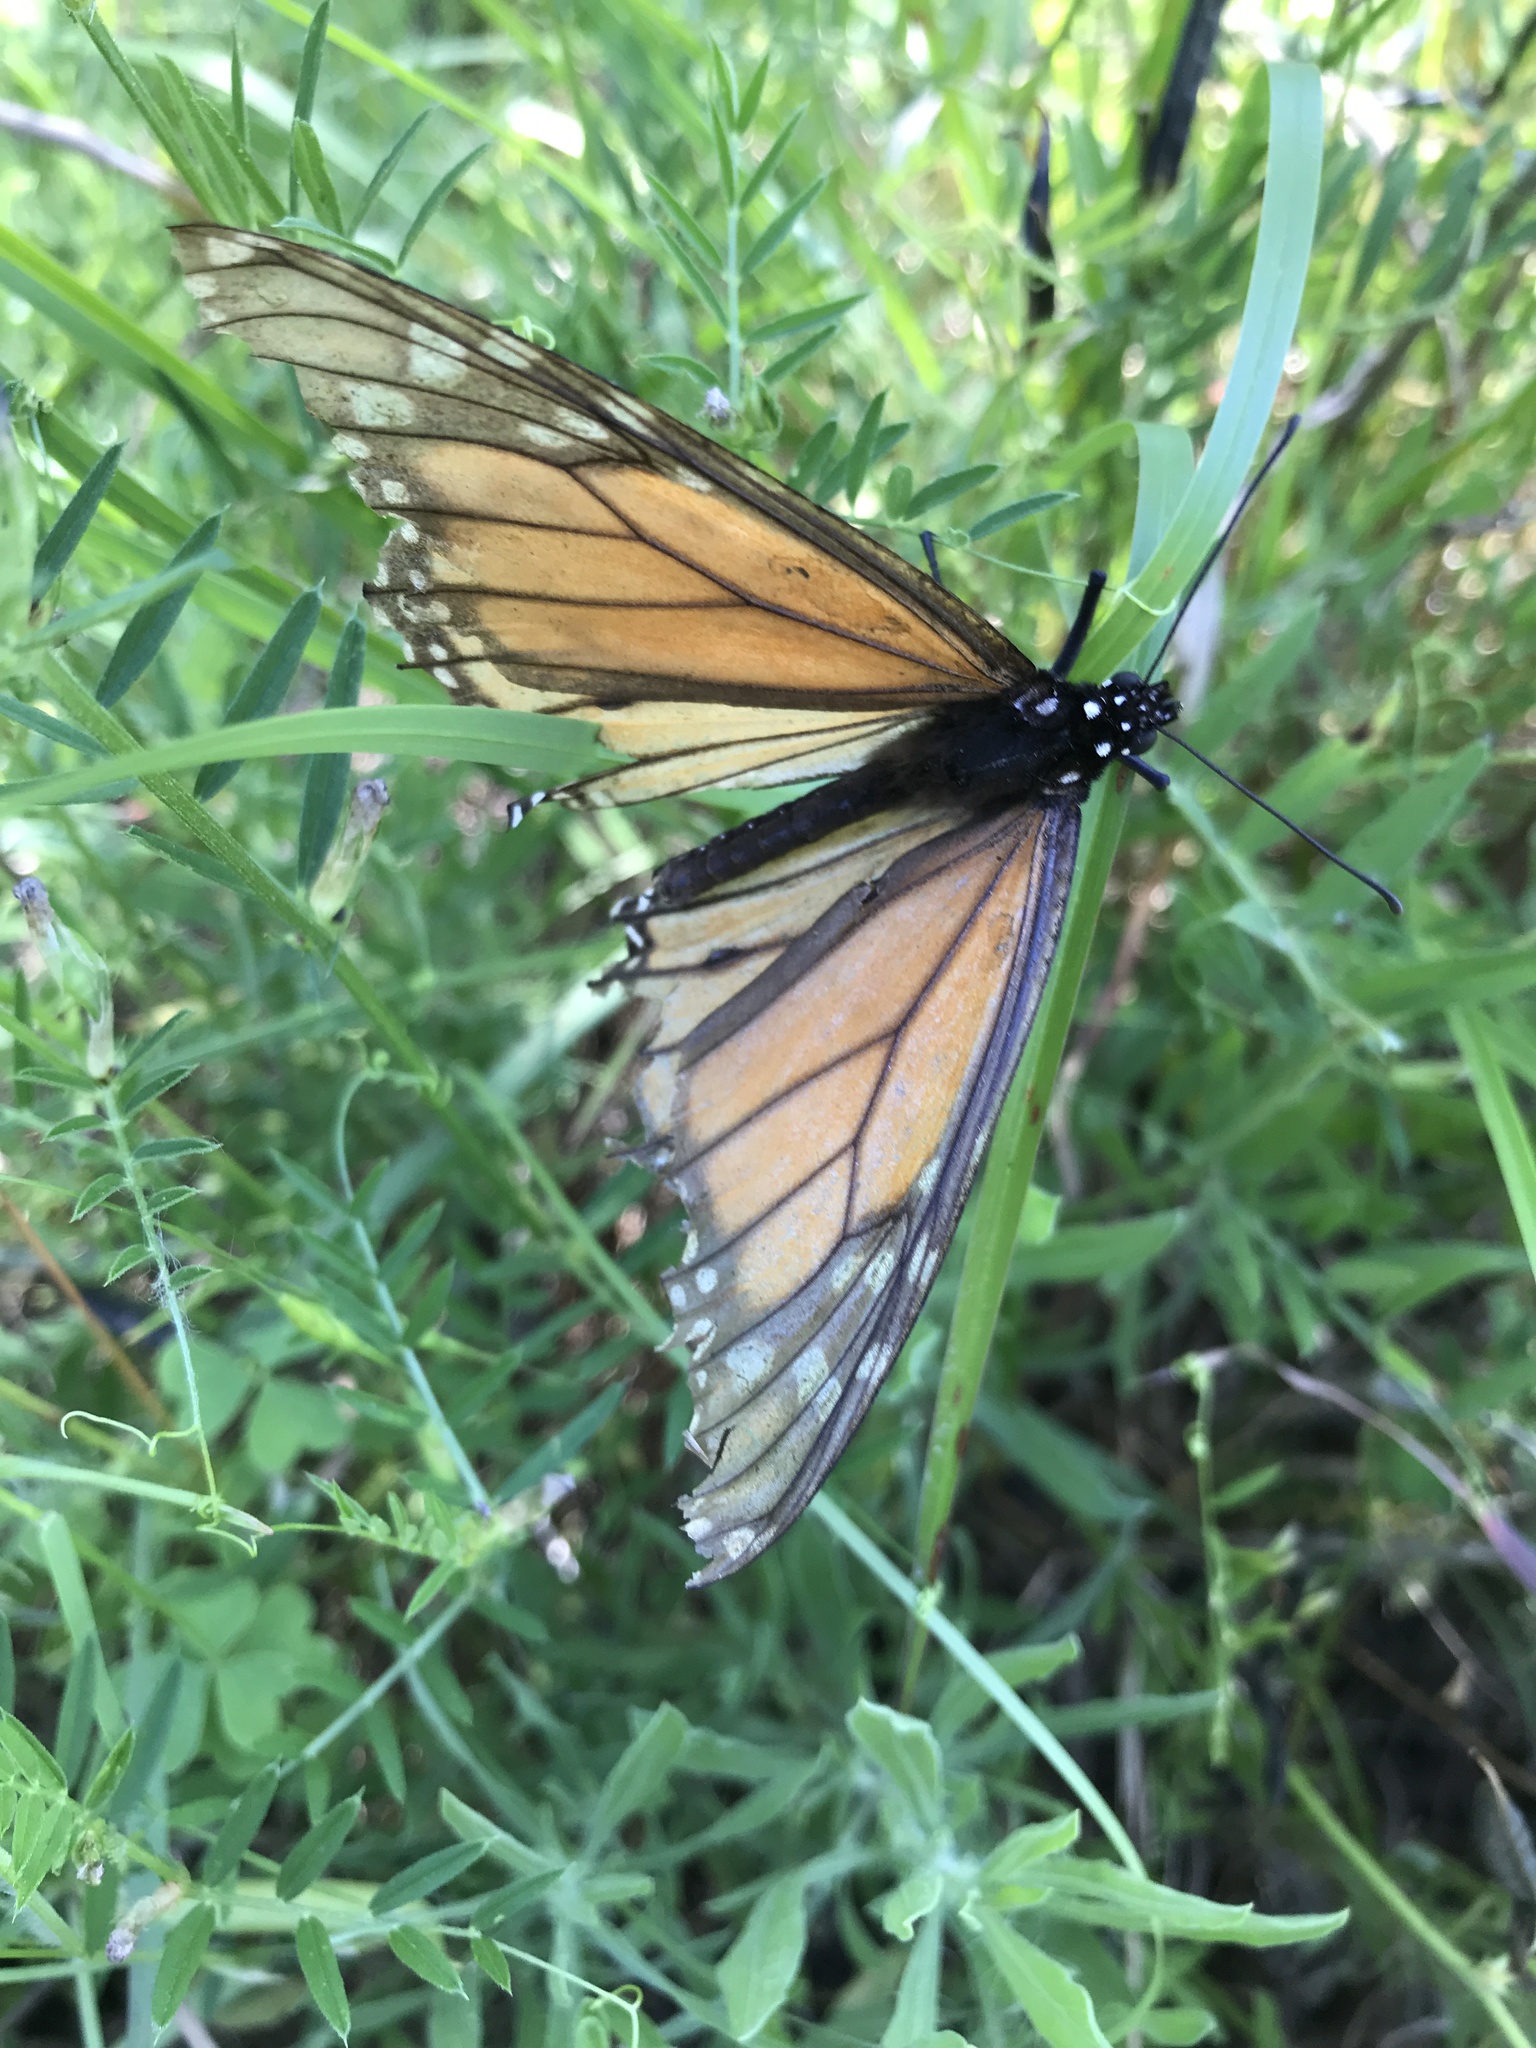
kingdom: Animalia
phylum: Arthropoda
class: Insecta
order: Lepidoptera
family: Nymphalidae
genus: Danaus
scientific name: Danaus plexippus
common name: Monarch
